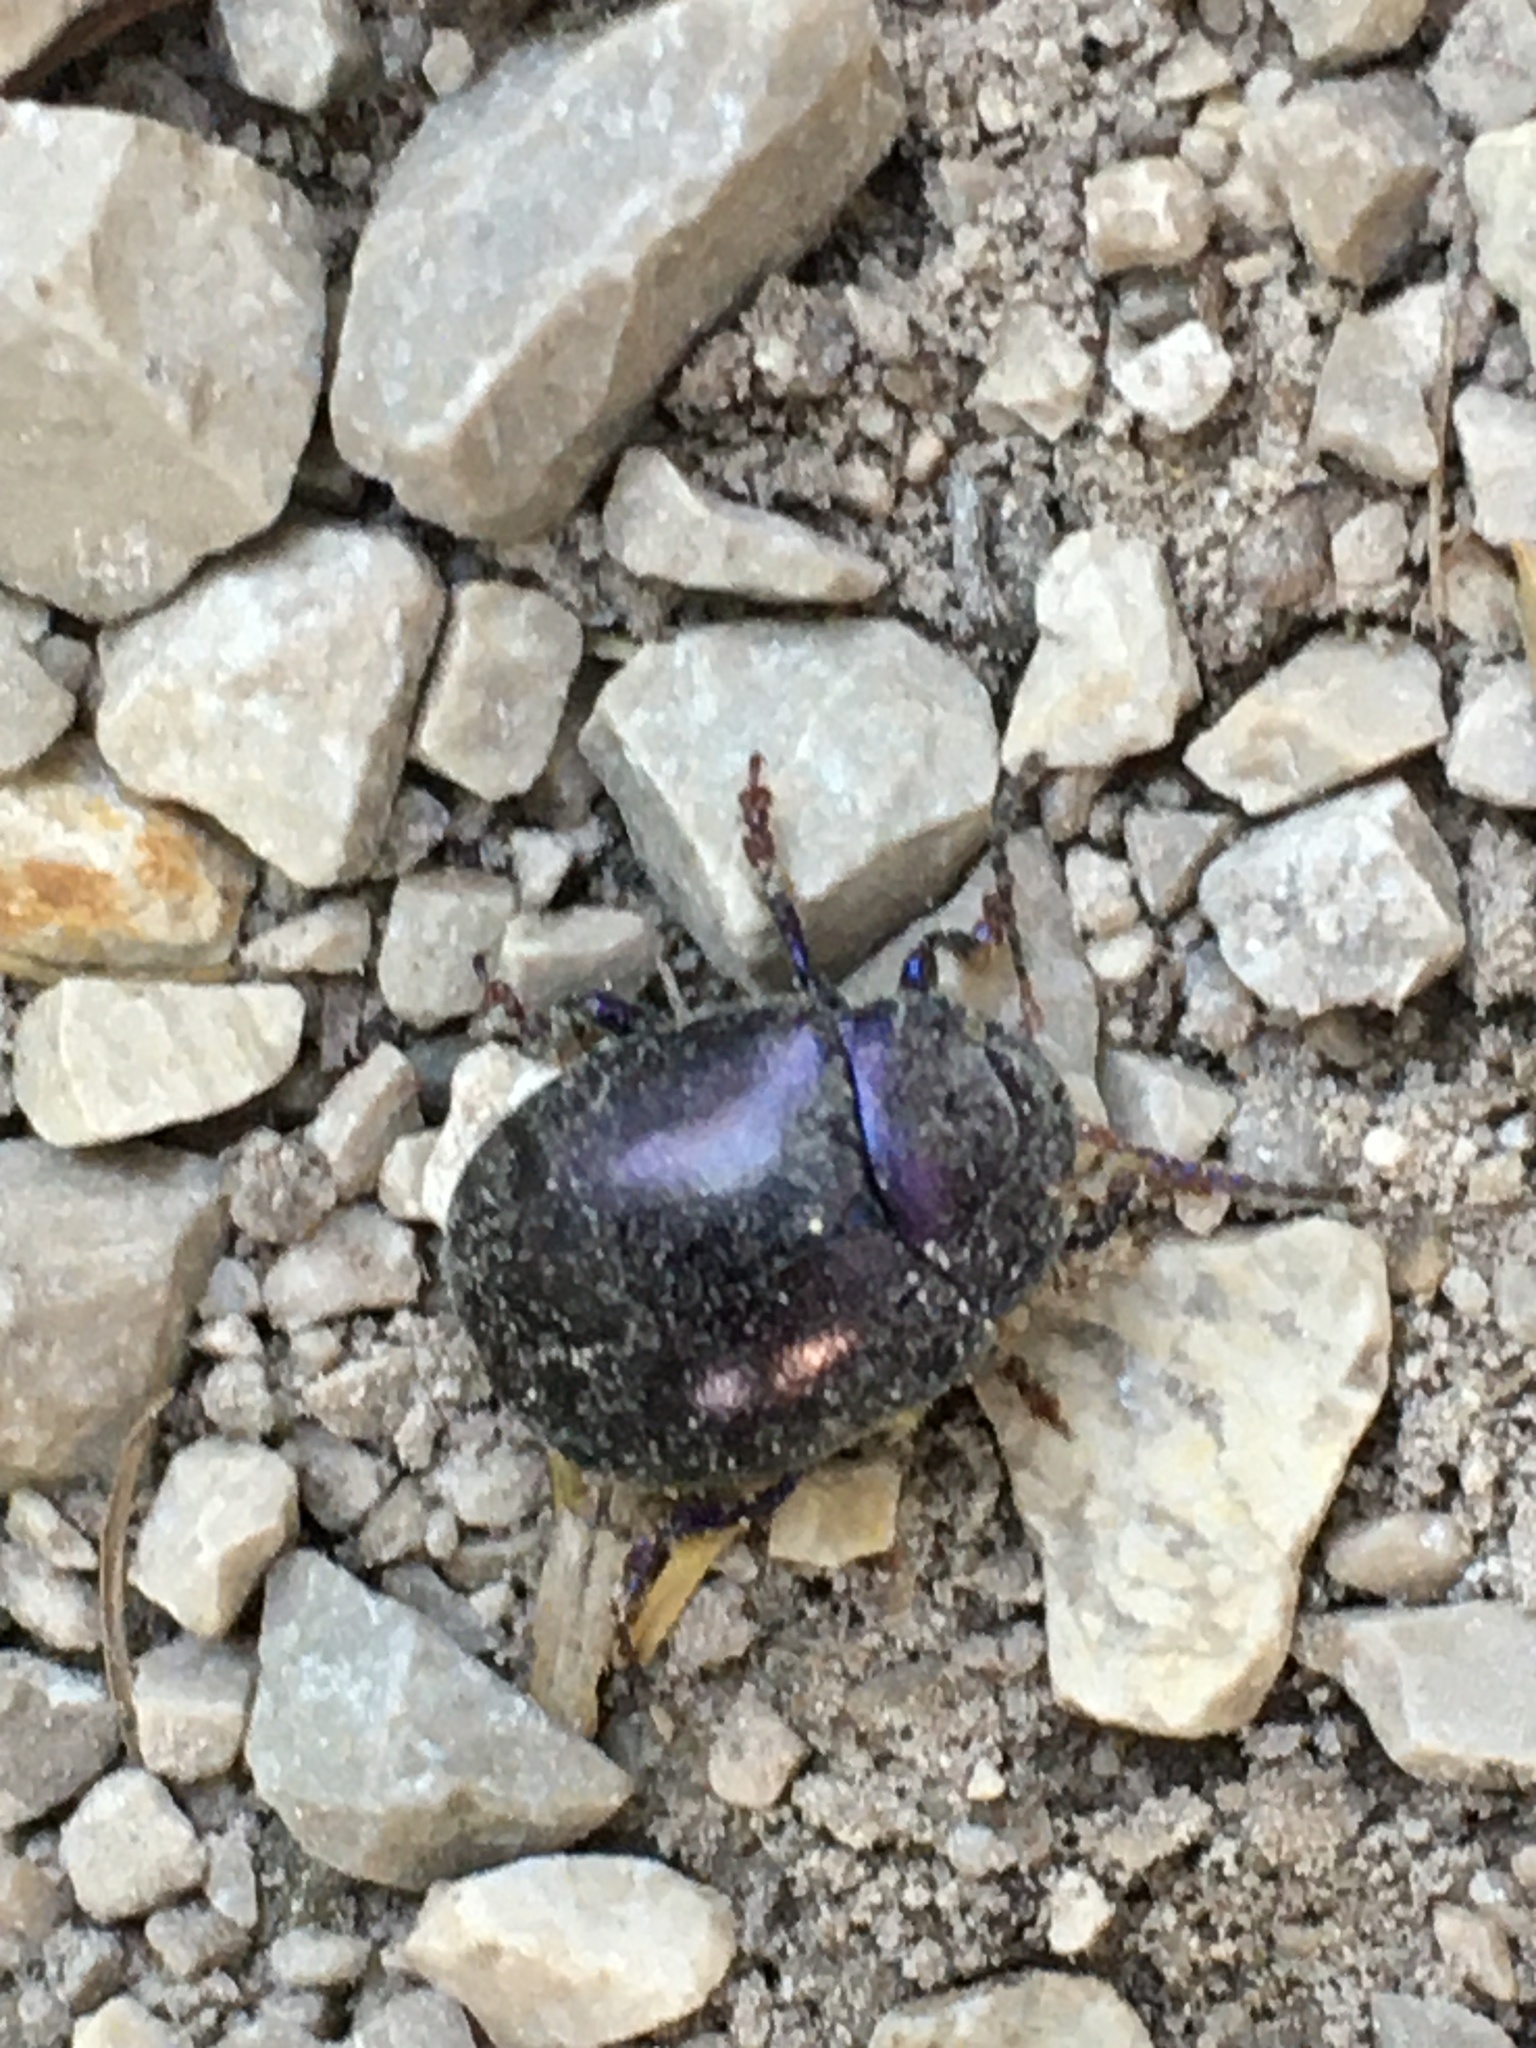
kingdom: Animalia
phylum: Arthropoda
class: Insecta
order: Coleoptera
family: Chrysomelidae
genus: Chrysolina
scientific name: Chrysolina sturmi
